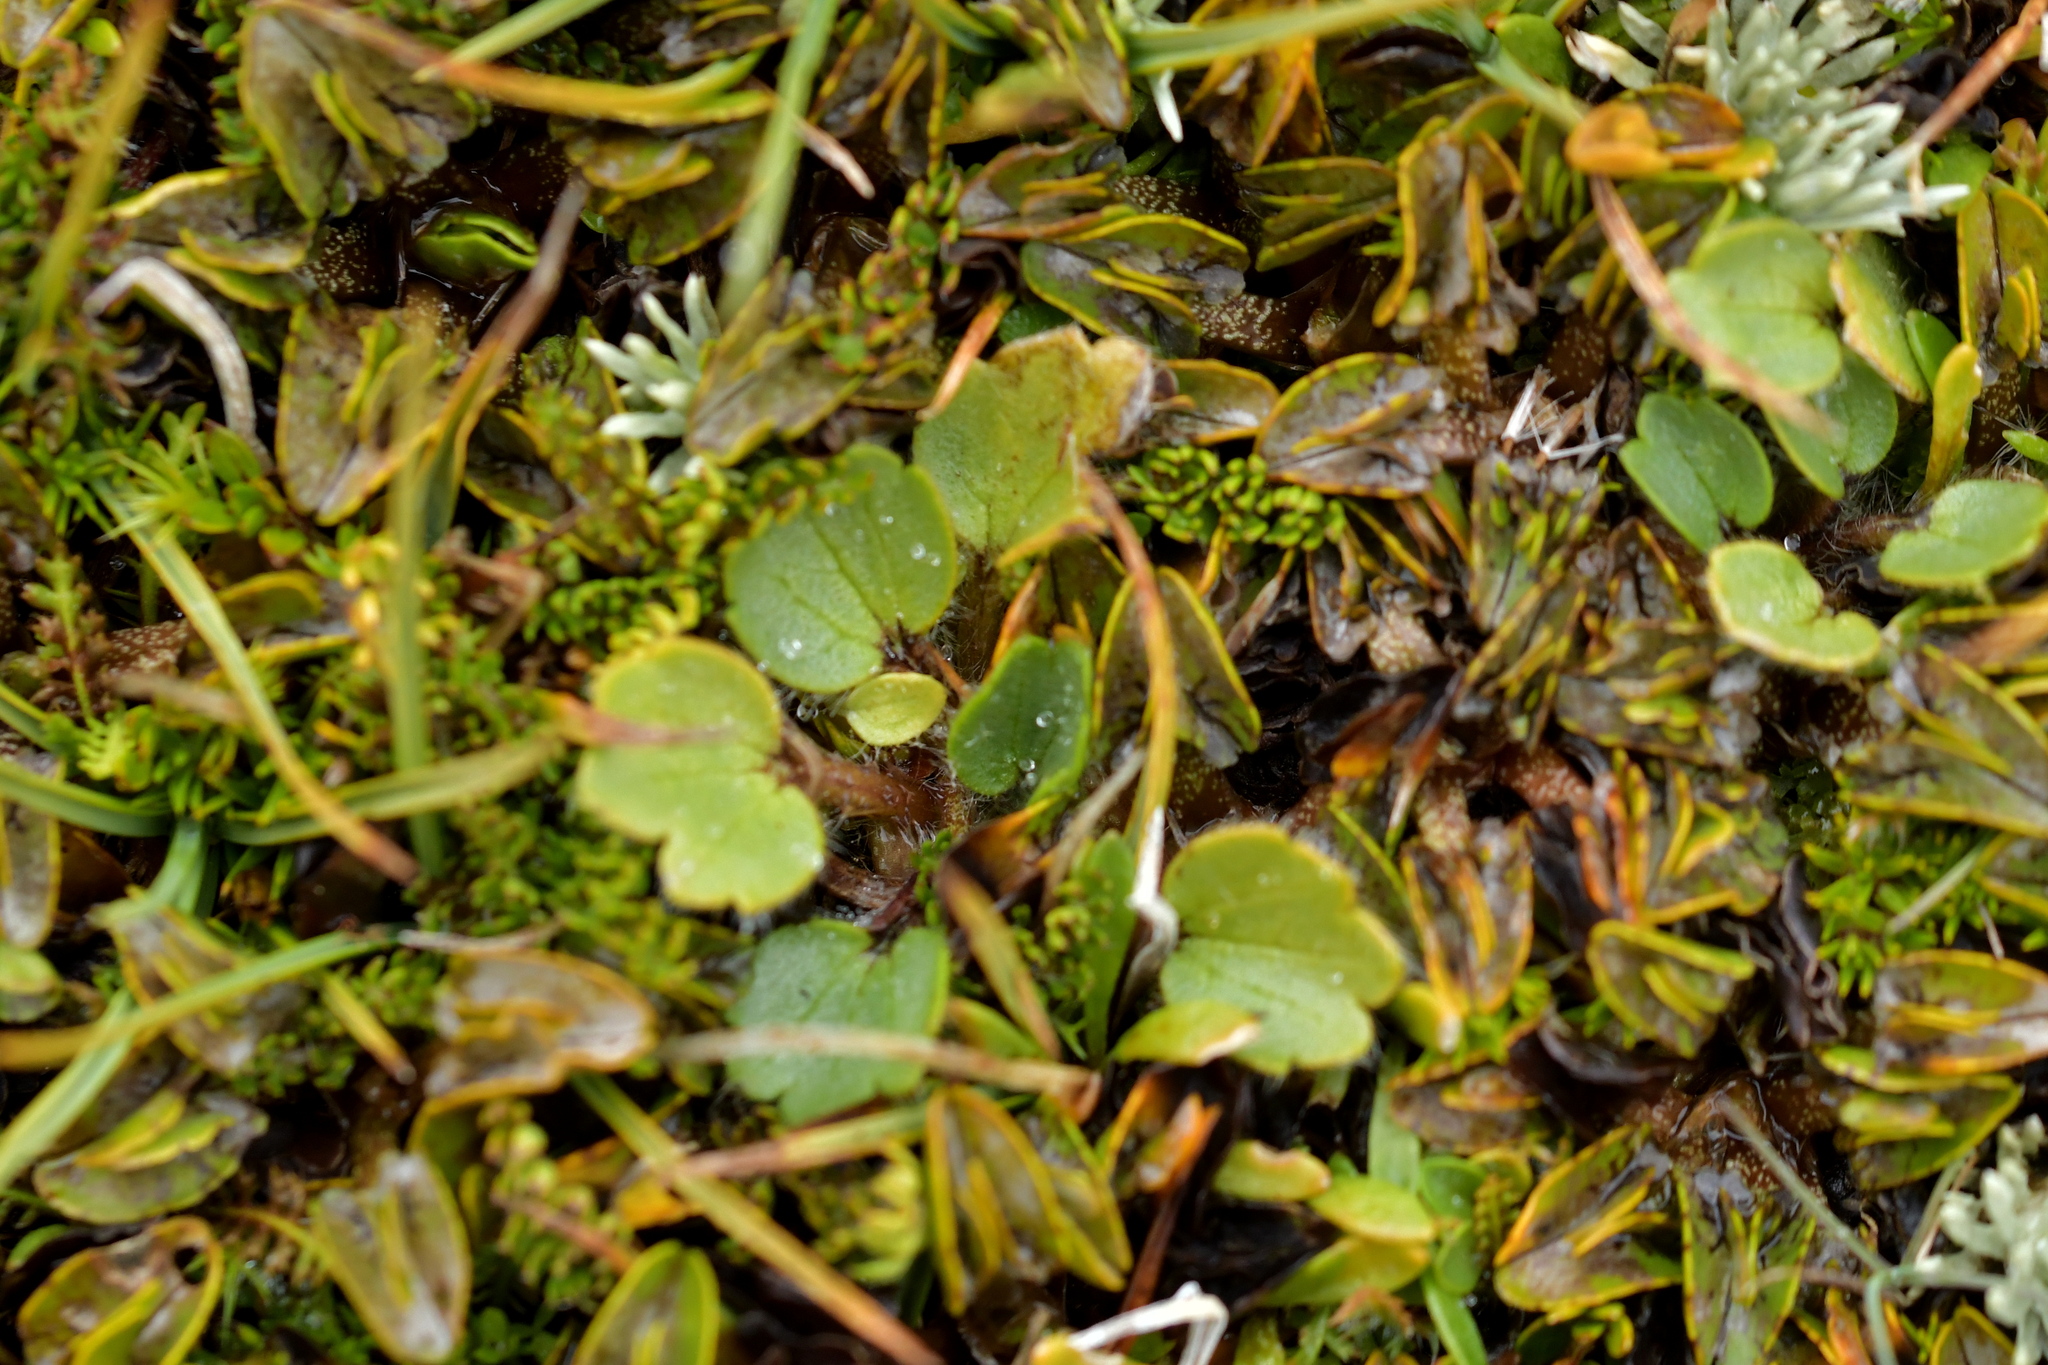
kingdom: Plantae
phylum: Tracheophyta
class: Magnoliopsida
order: Ranunculales
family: Ranunculaceae
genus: Ranunculus
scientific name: Ranunculus royi
